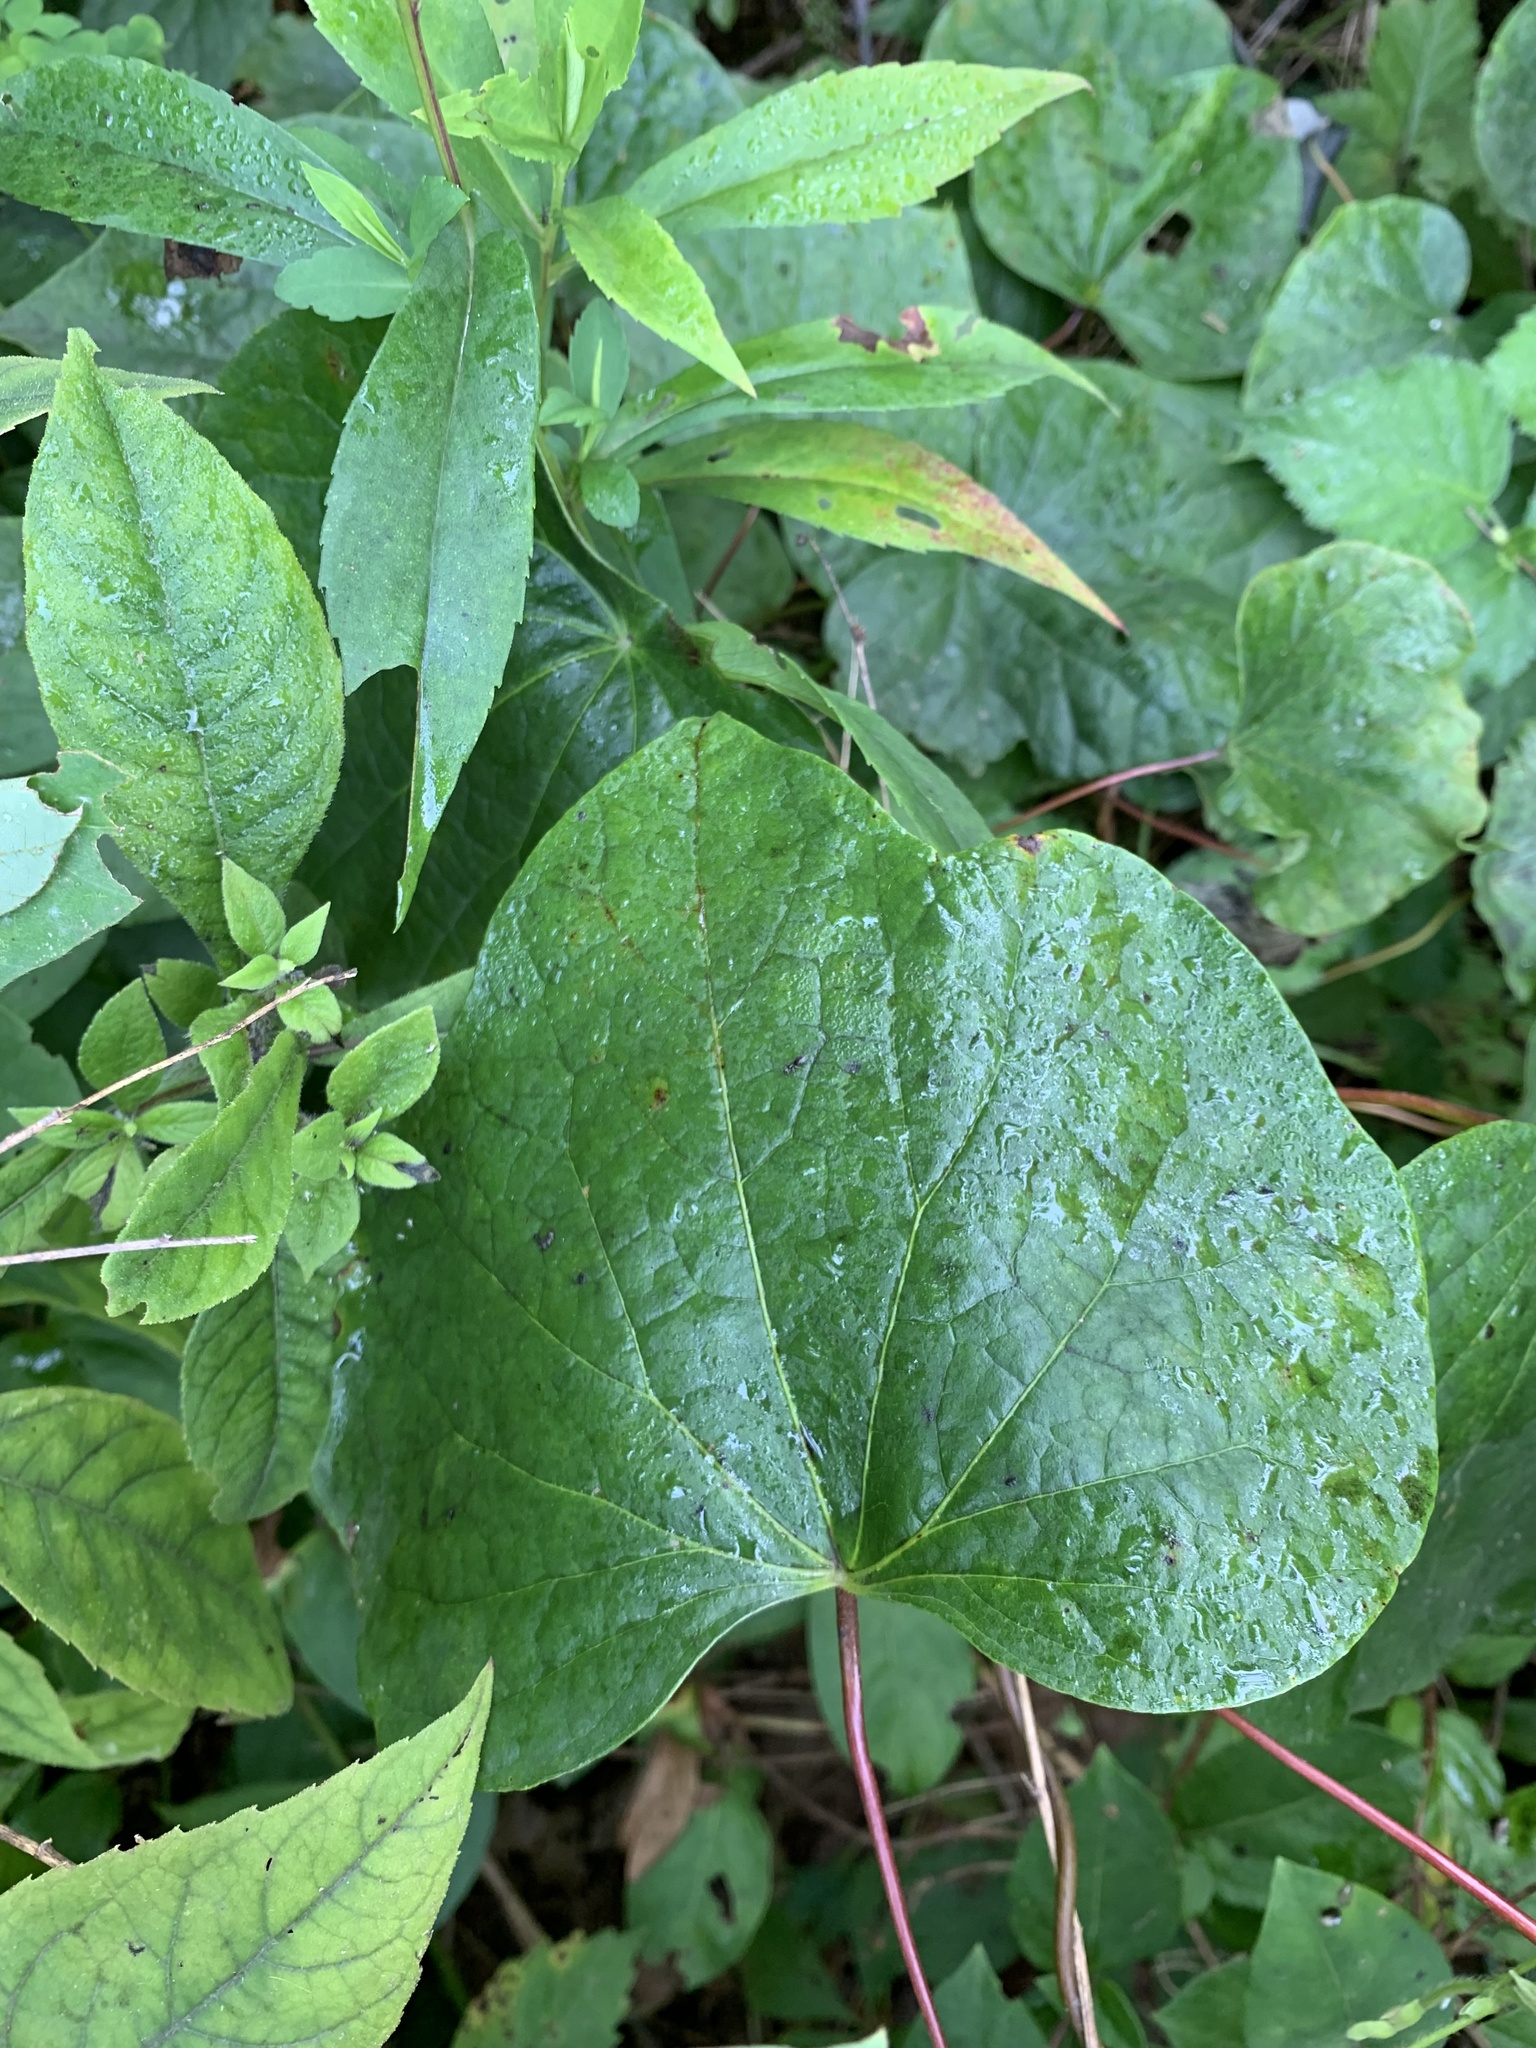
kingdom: Plantae
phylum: Tracheophyta
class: Magnoliopsida
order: Ranunculales
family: Menispermaceae
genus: Menispermum
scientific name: Menispermum canadense
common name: Moonseed
